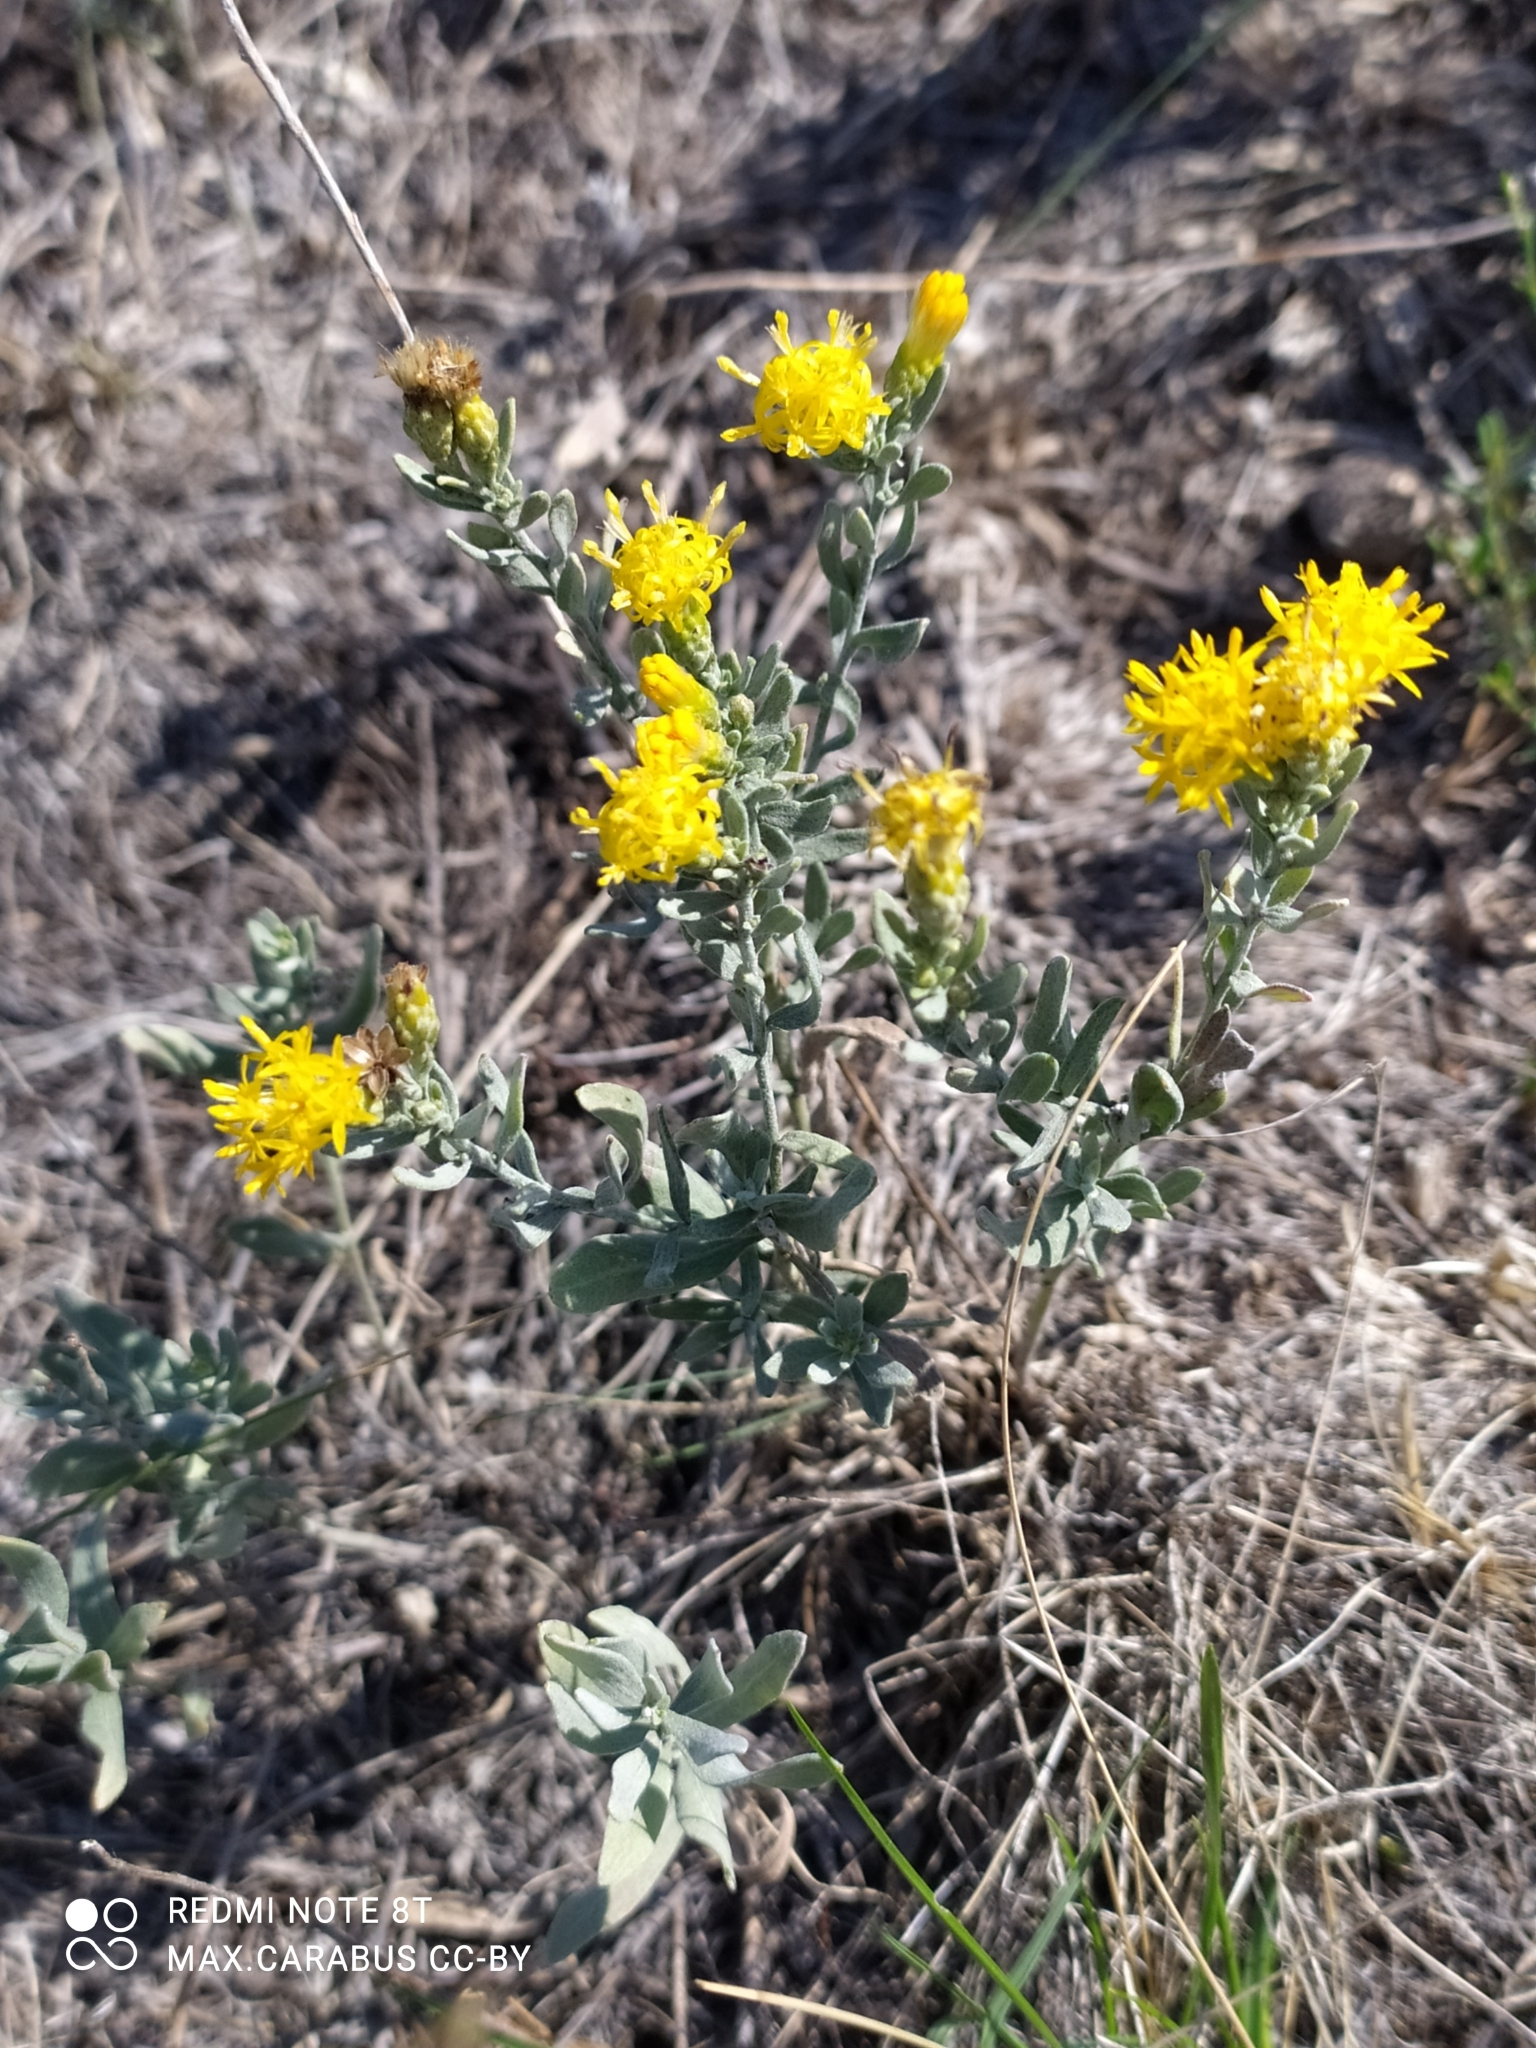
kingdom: Plantae
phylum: Tracheophyta
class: Magnoliopsida
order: Asterales
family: Asteraceae
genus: Galatella
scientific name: Galatella villosa
